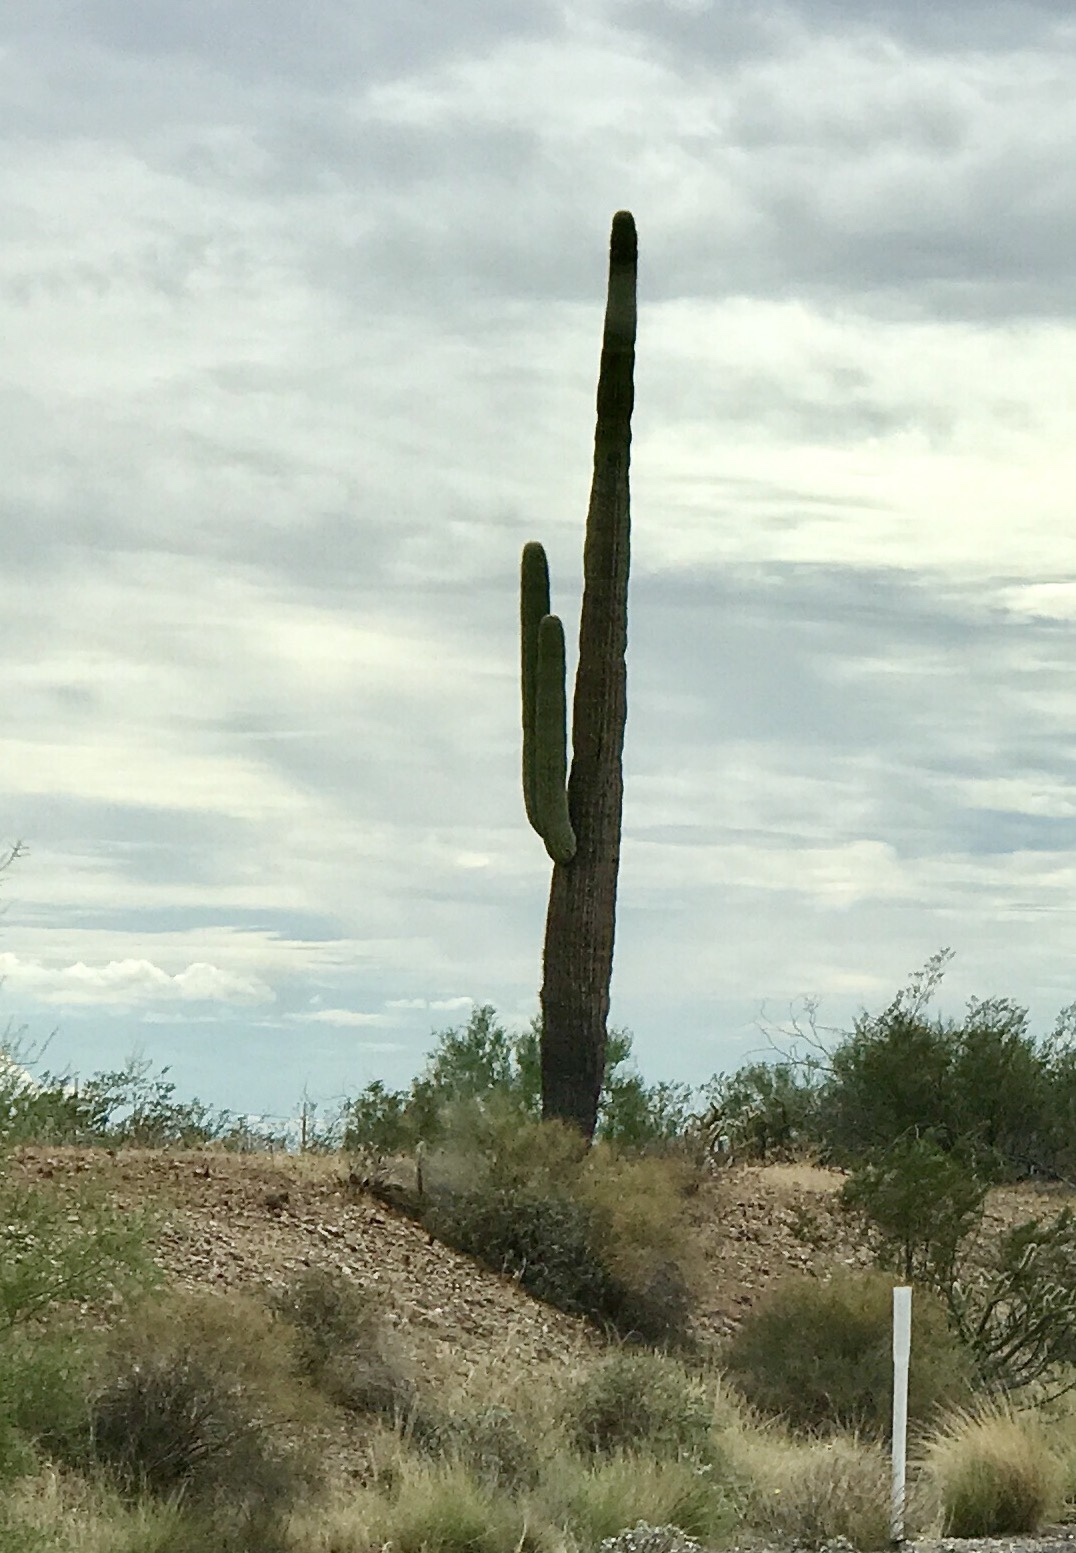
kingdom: Plantae
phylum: Tracheophyta
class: Magnoliopsida
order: Caryophyllales
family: Cactaceae
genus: Carnegiea
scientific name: Carnegiea gigantea
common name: Saguaro
